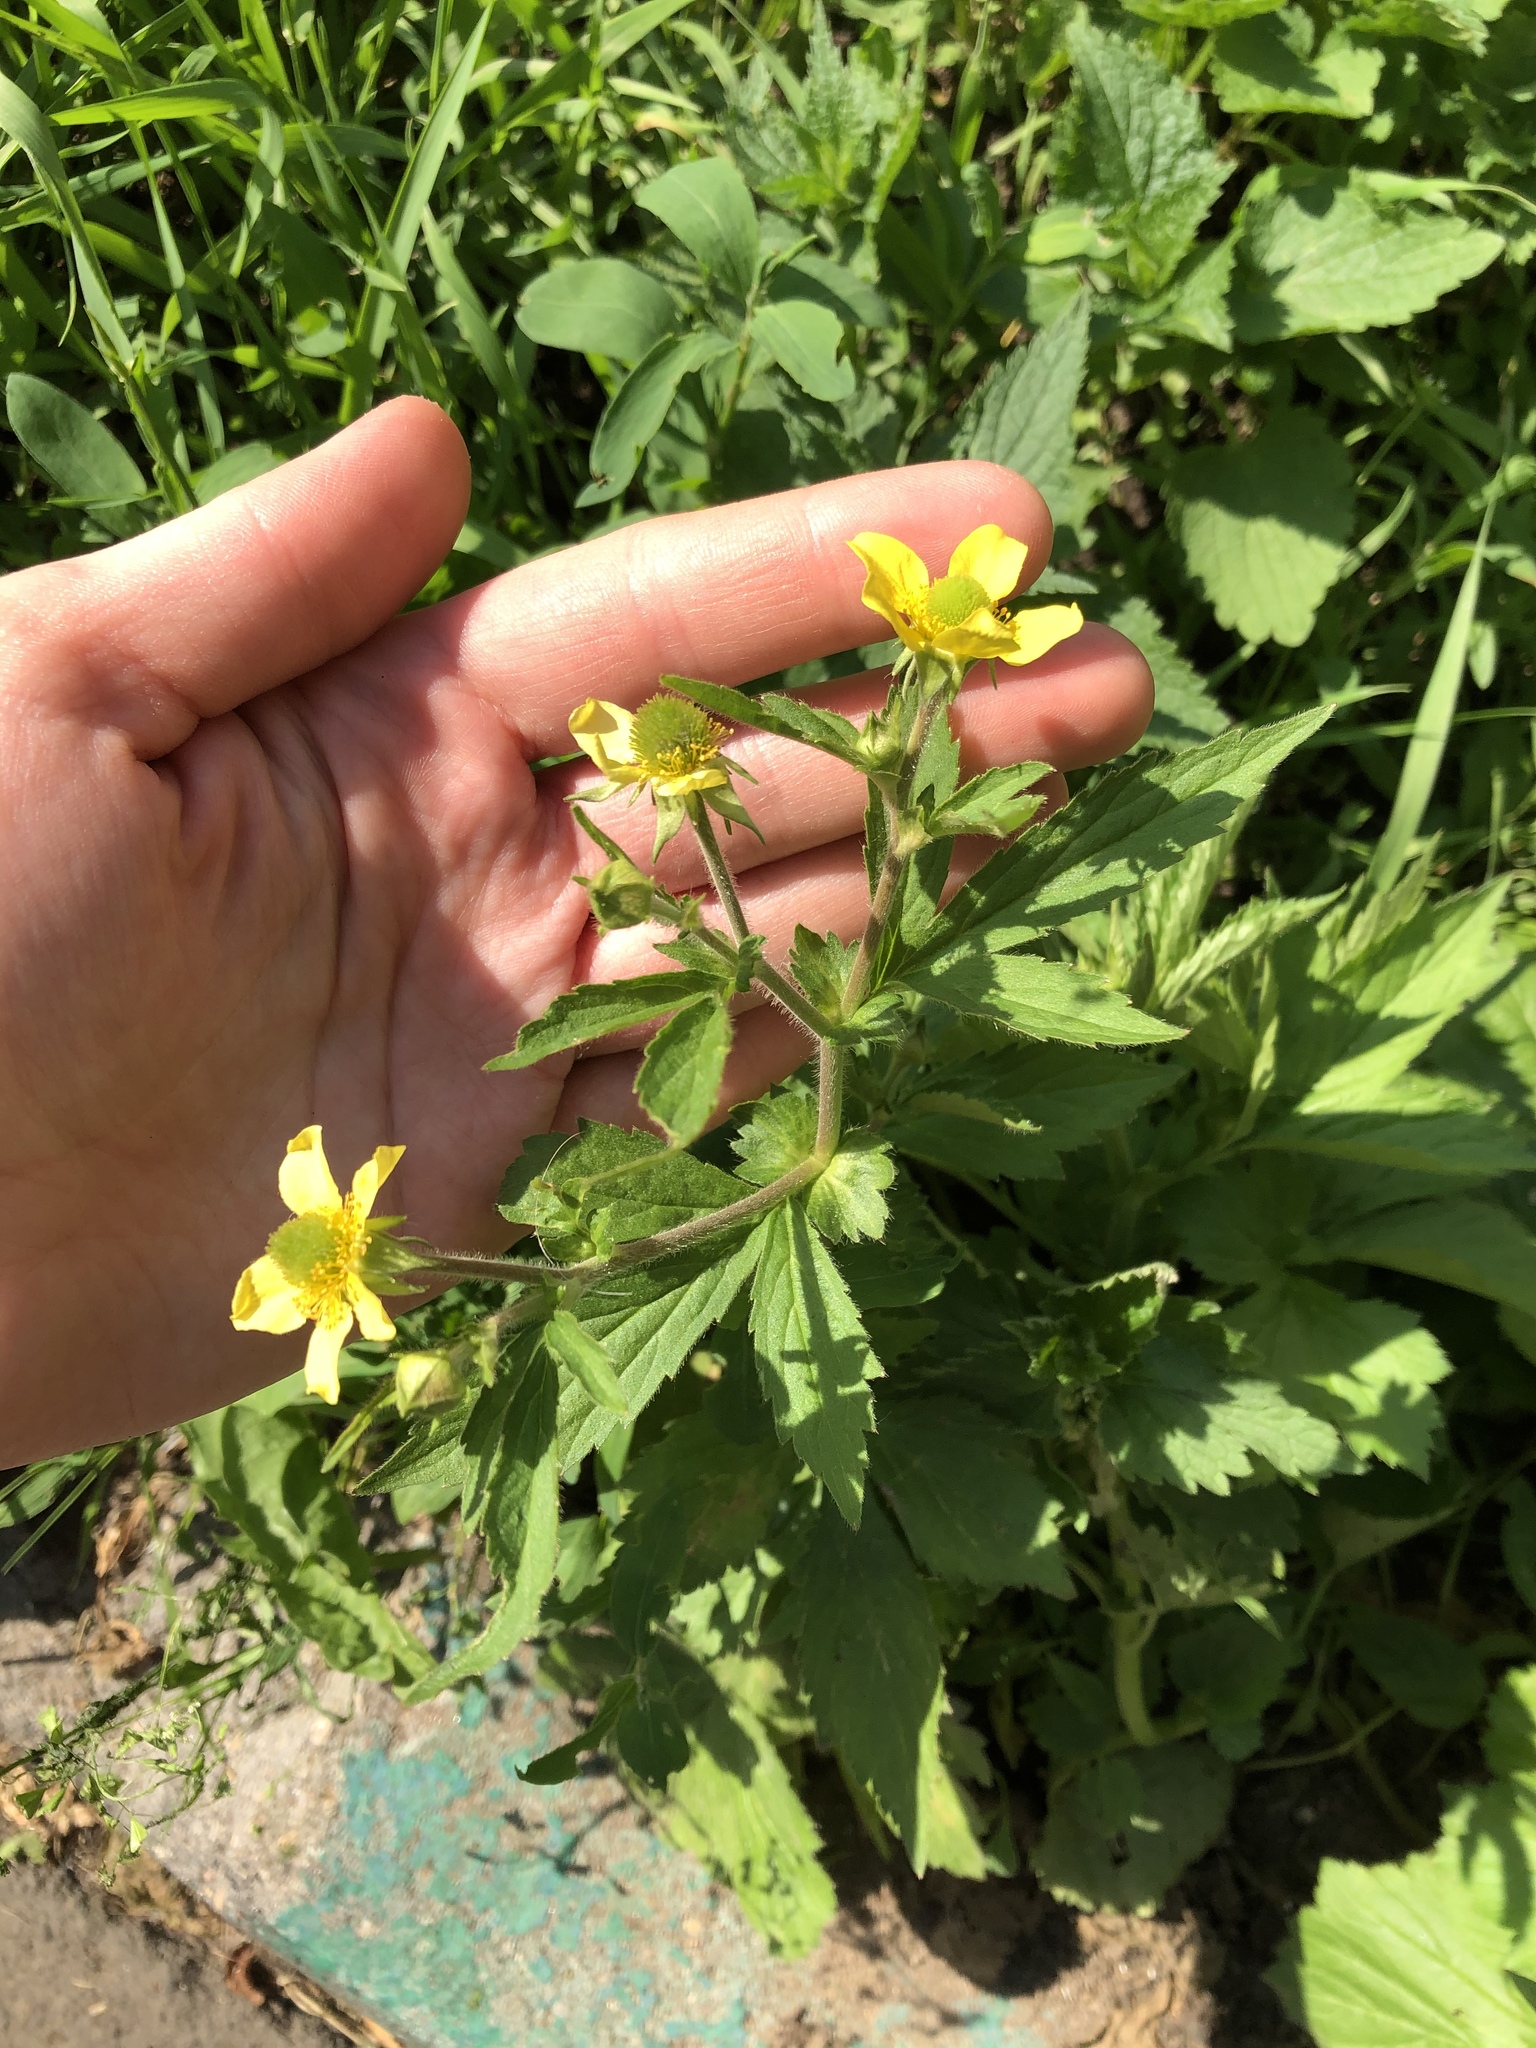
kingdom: Plantae
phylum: Tracheophyta
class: Magnoliopsida
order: Rosales
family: Rosaceae
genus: Geum
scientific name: Geum aleppicum
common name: Yellow avens
